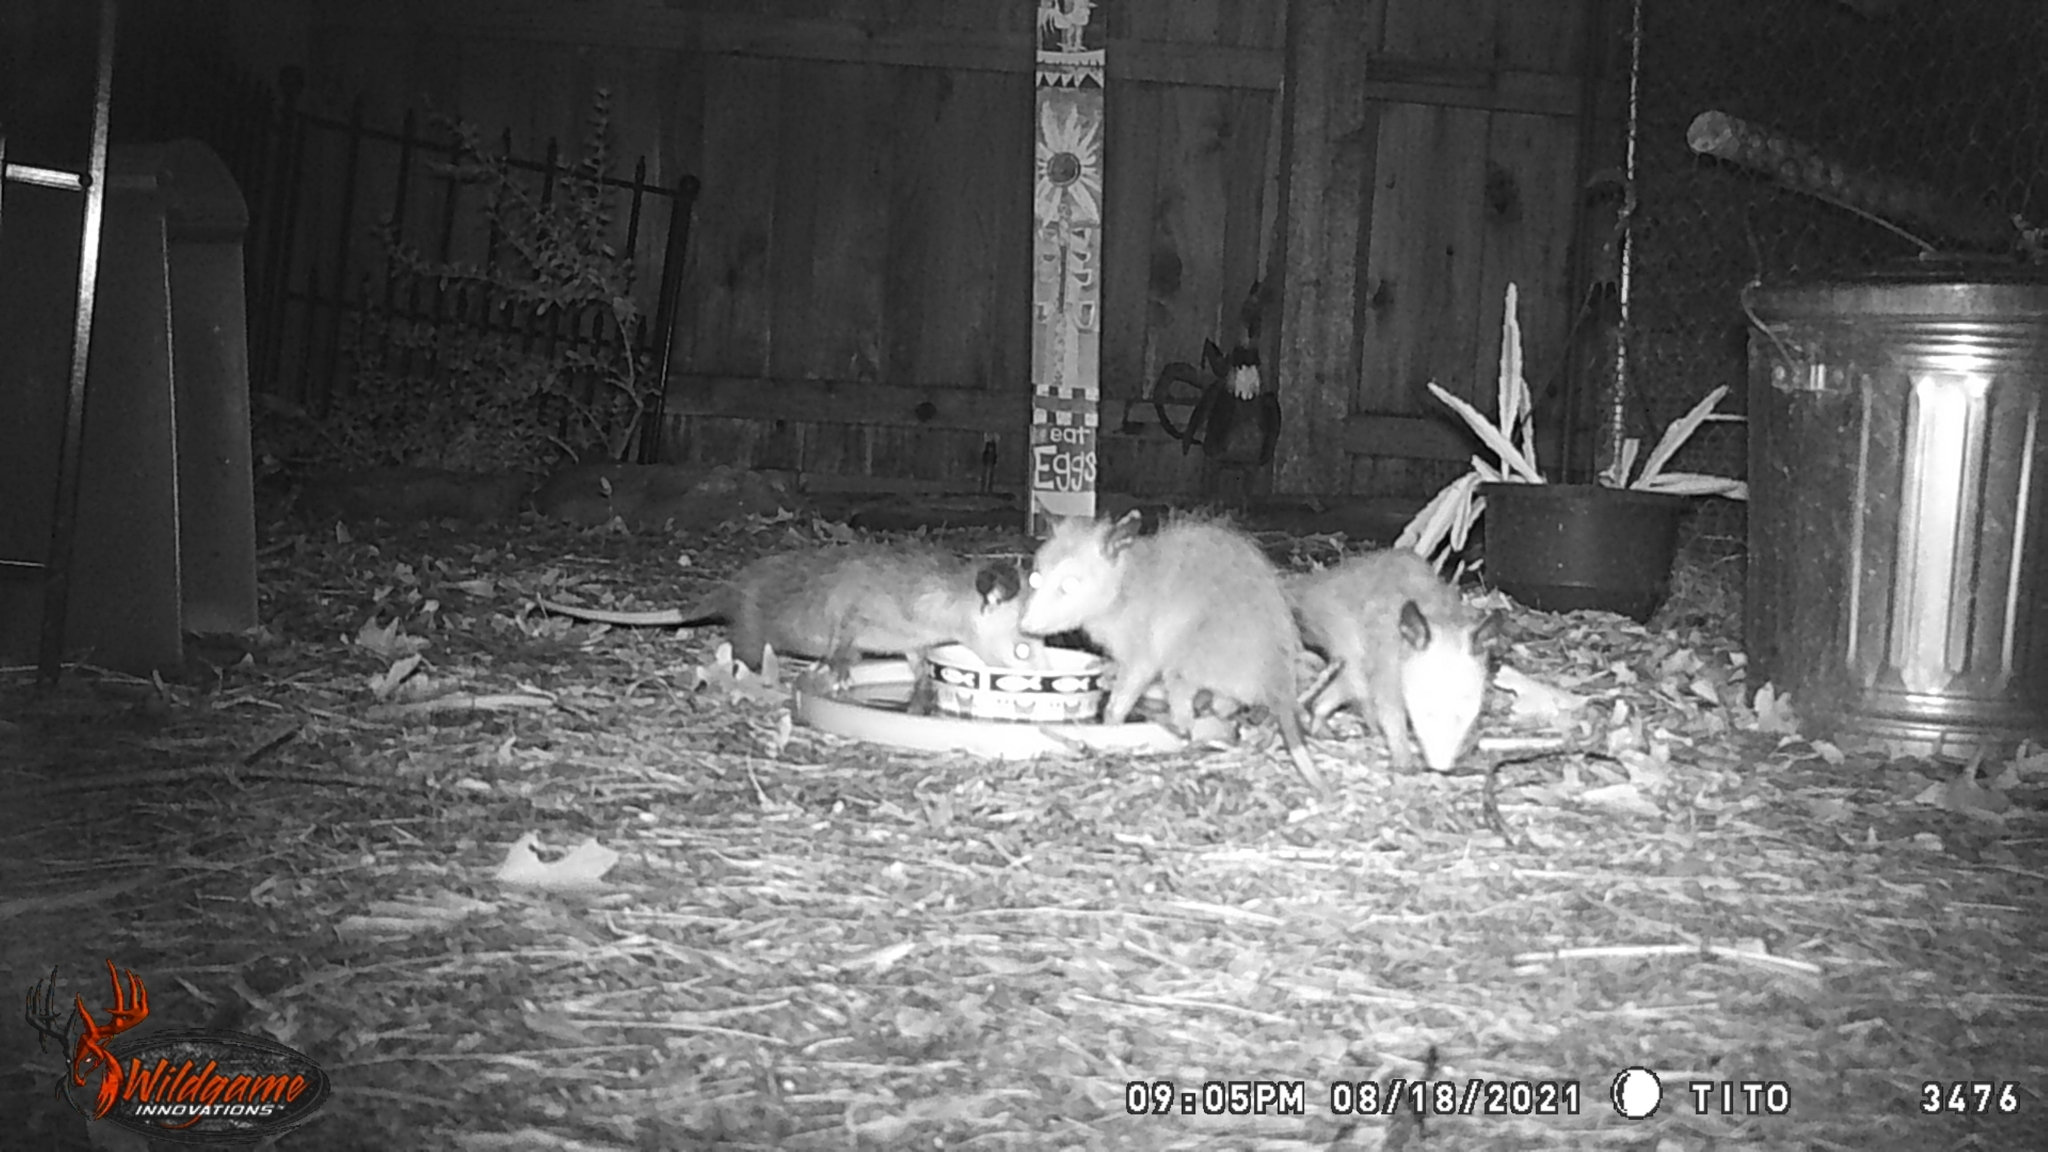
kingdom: Animalia
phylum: Chordata
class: Mammalia
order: Didelphimorphia
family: Didelphidae
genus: Didelphis
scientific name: Didelphis virginiana
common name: Virginia opossum
